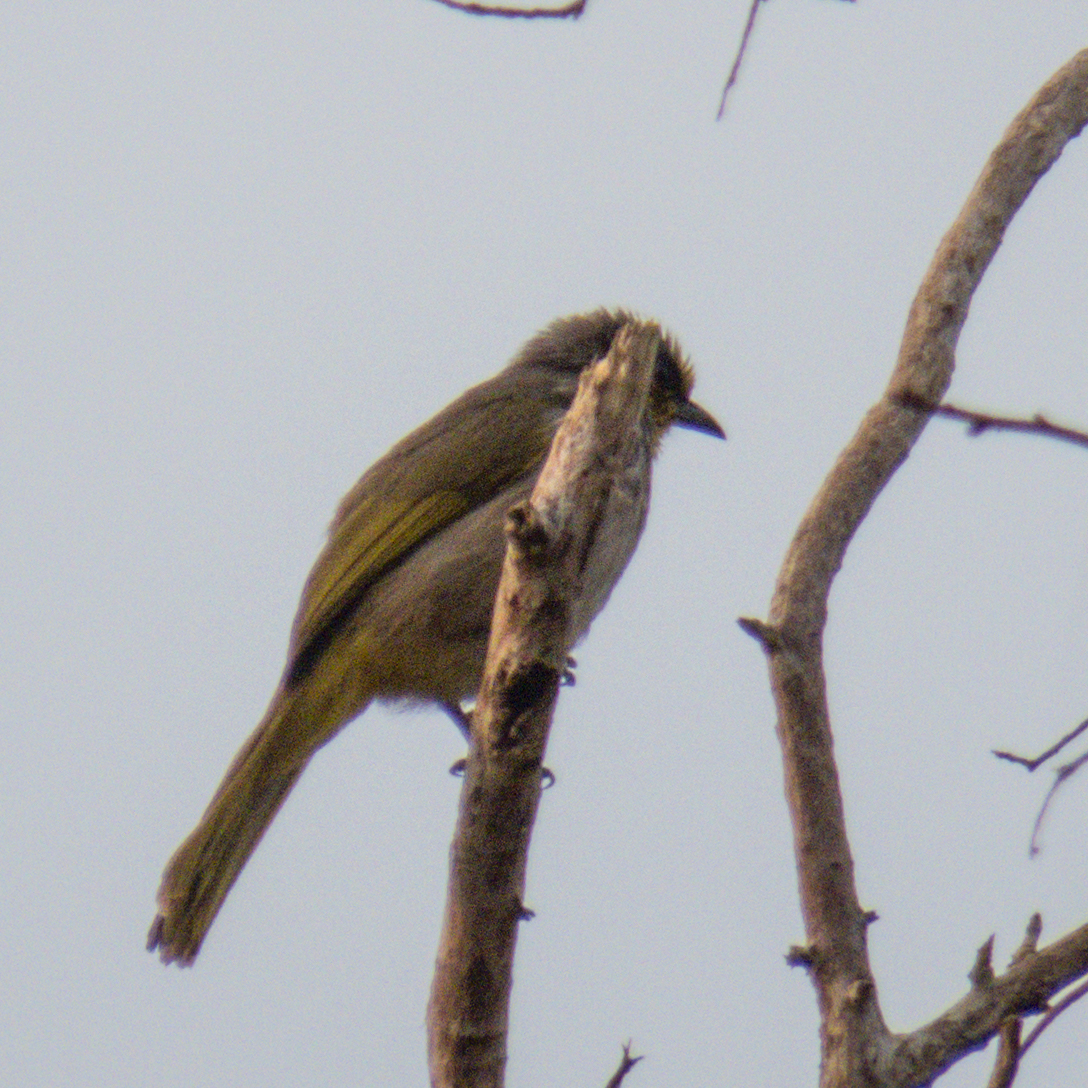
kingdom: Animalia
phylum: Chordata
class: Aves
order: Passeriformes
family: Pycnonotidae
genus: Pycnonotus
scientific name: Pycnonotus finlaysoni
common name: Stripe-throated bulbul
